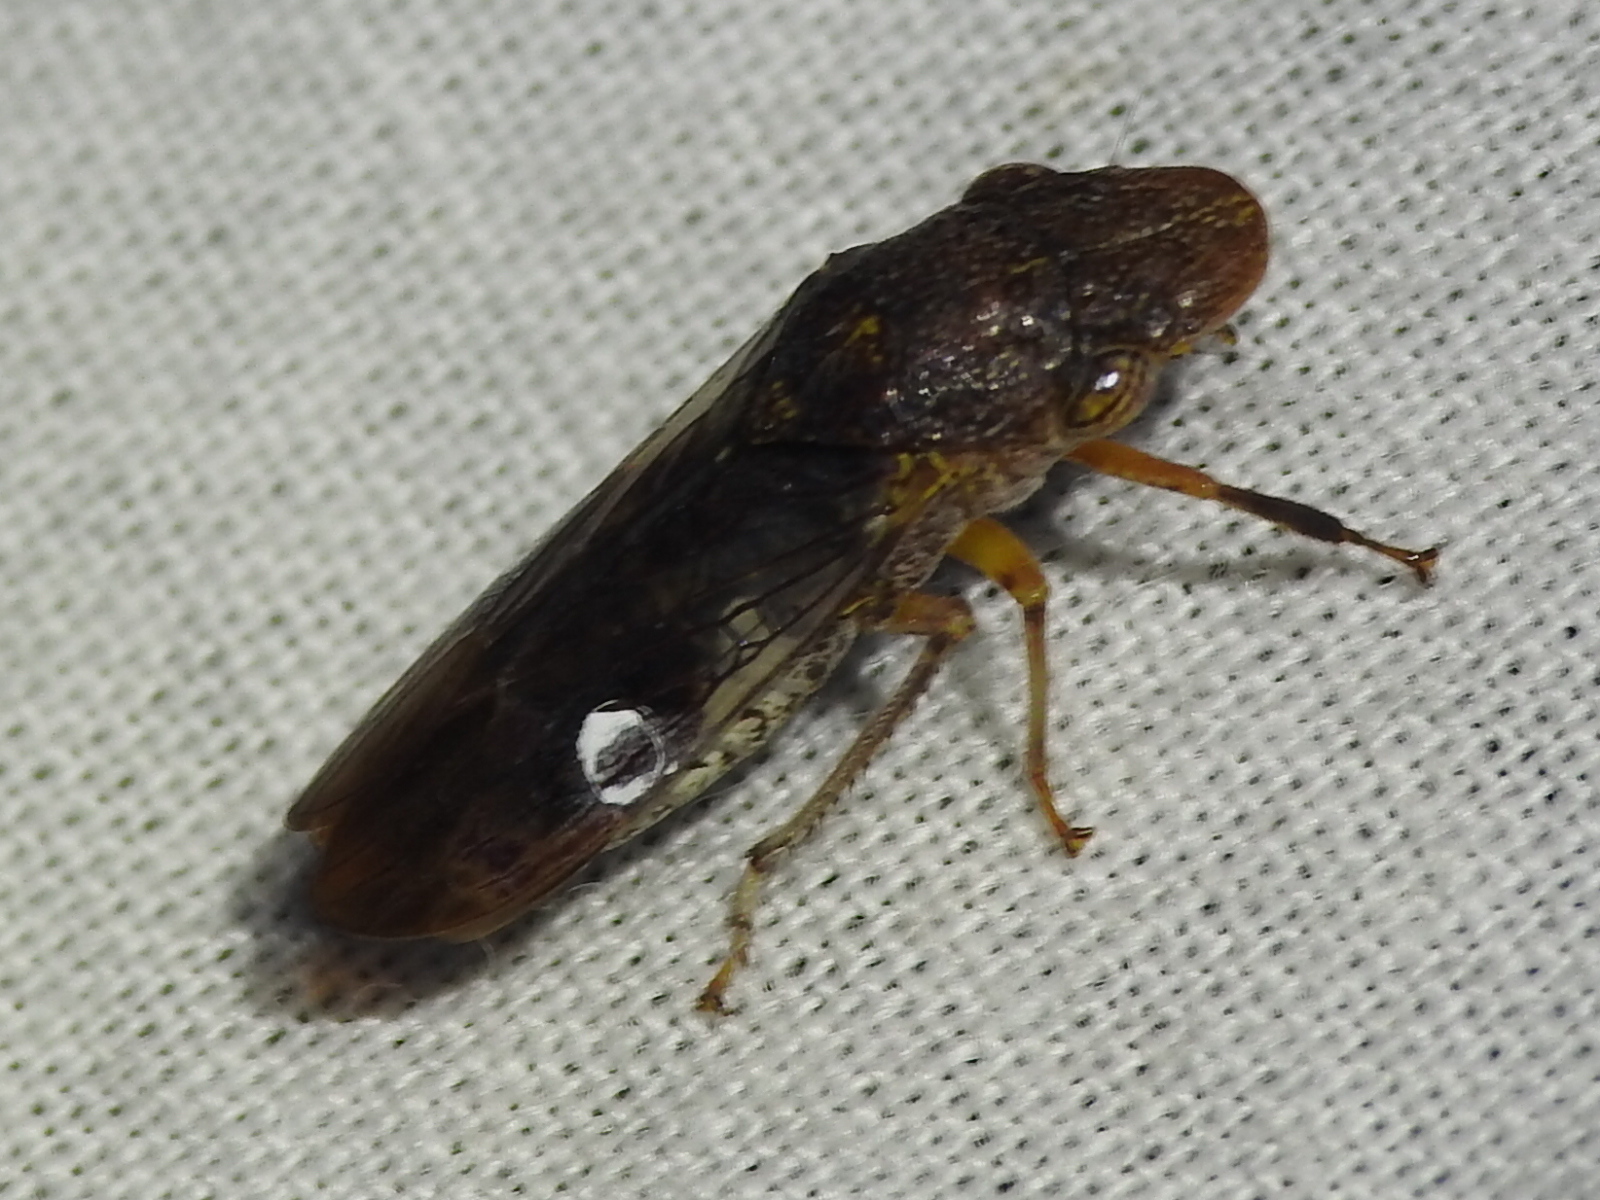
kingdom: Animalia
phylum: Arthropoda
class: Insecta
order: Hemiptera
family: Cicadellidae
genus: Homalodisca
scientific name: Homalodisca vitripennis
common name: Glassy-winged sharpshooter
